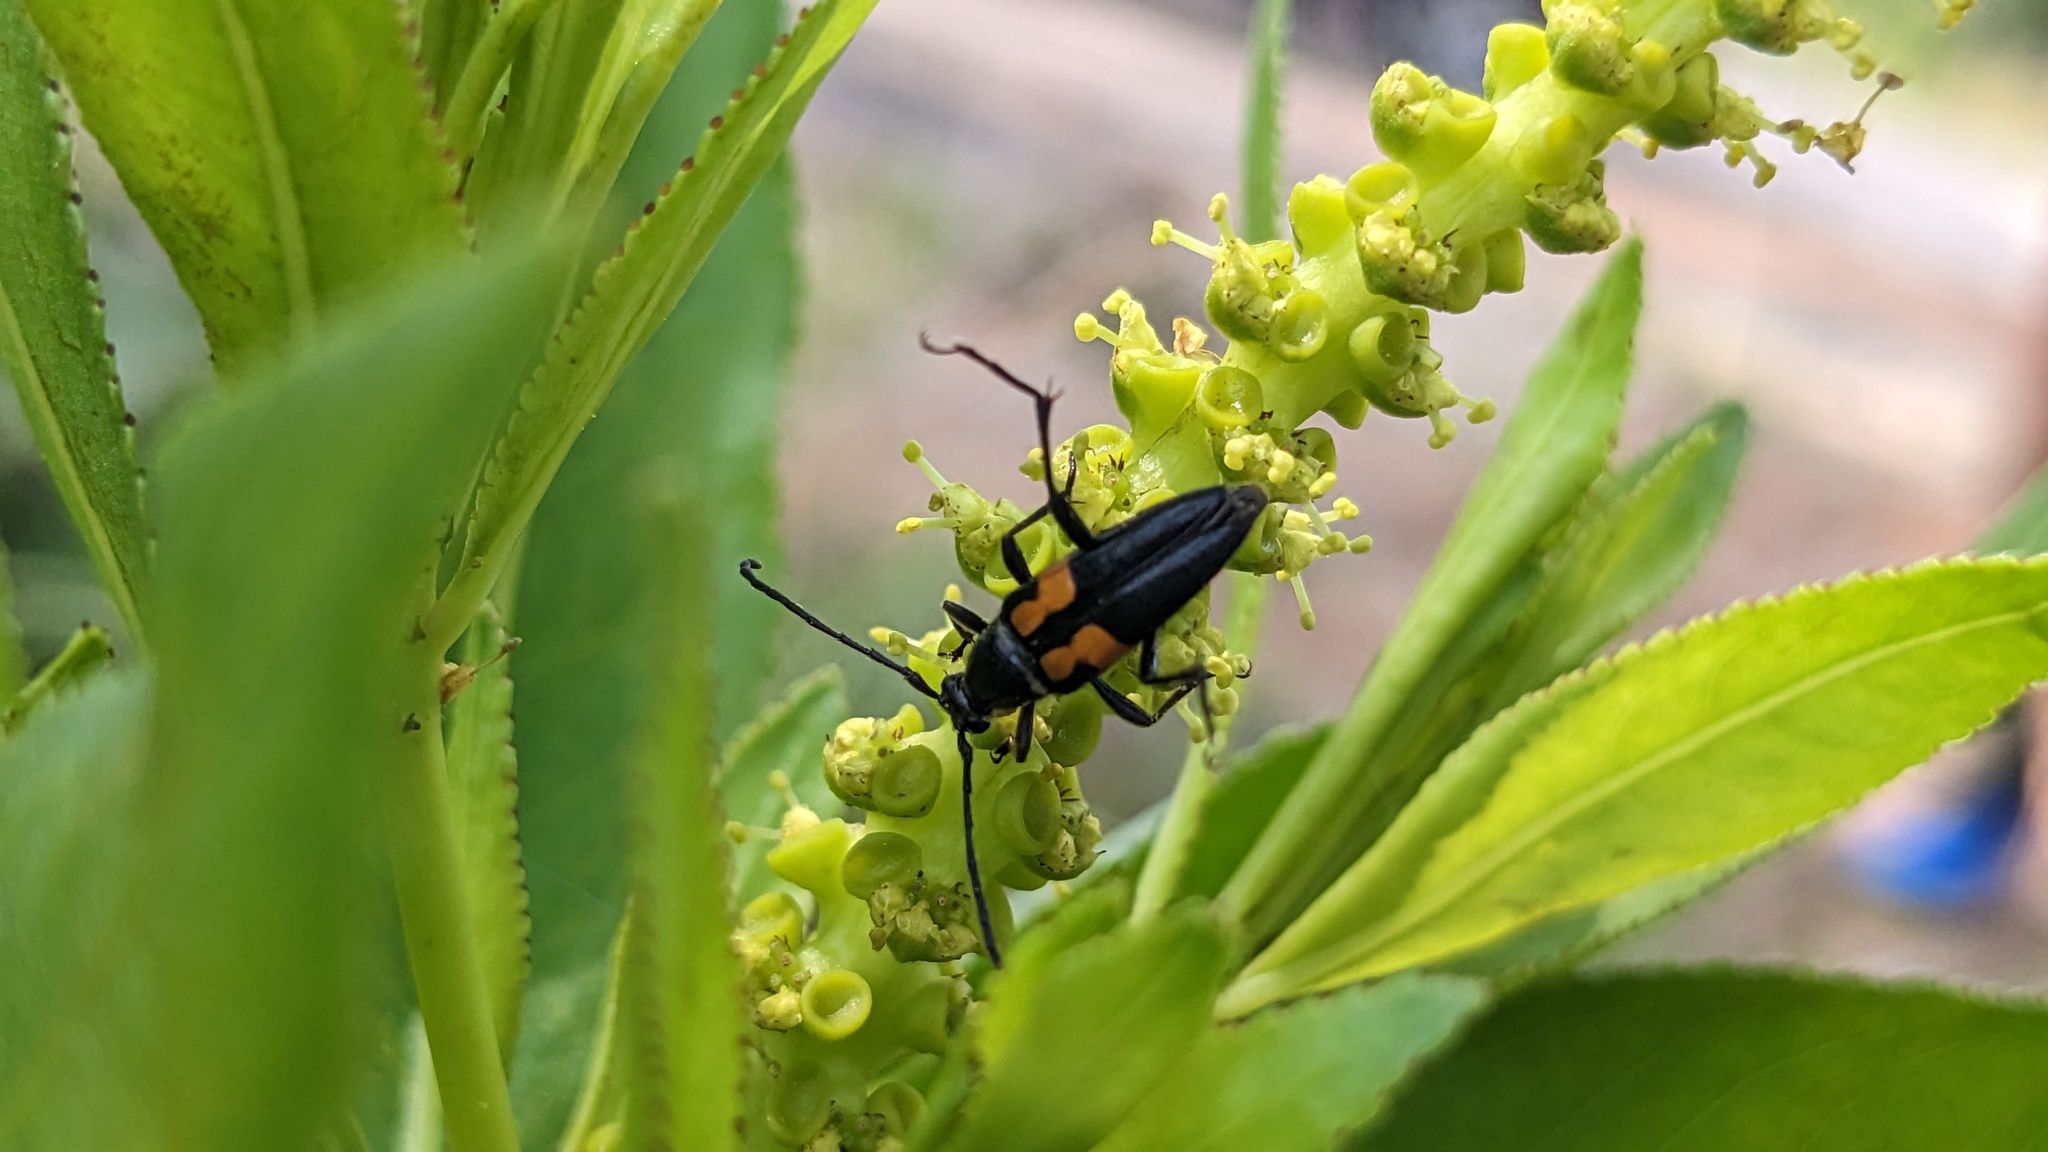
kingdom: Animalia
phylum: Arthropoda
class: Insecta
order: Coleoptera
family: Cerambycidae
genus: Typocerus
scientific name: Typocerus lunulatus
